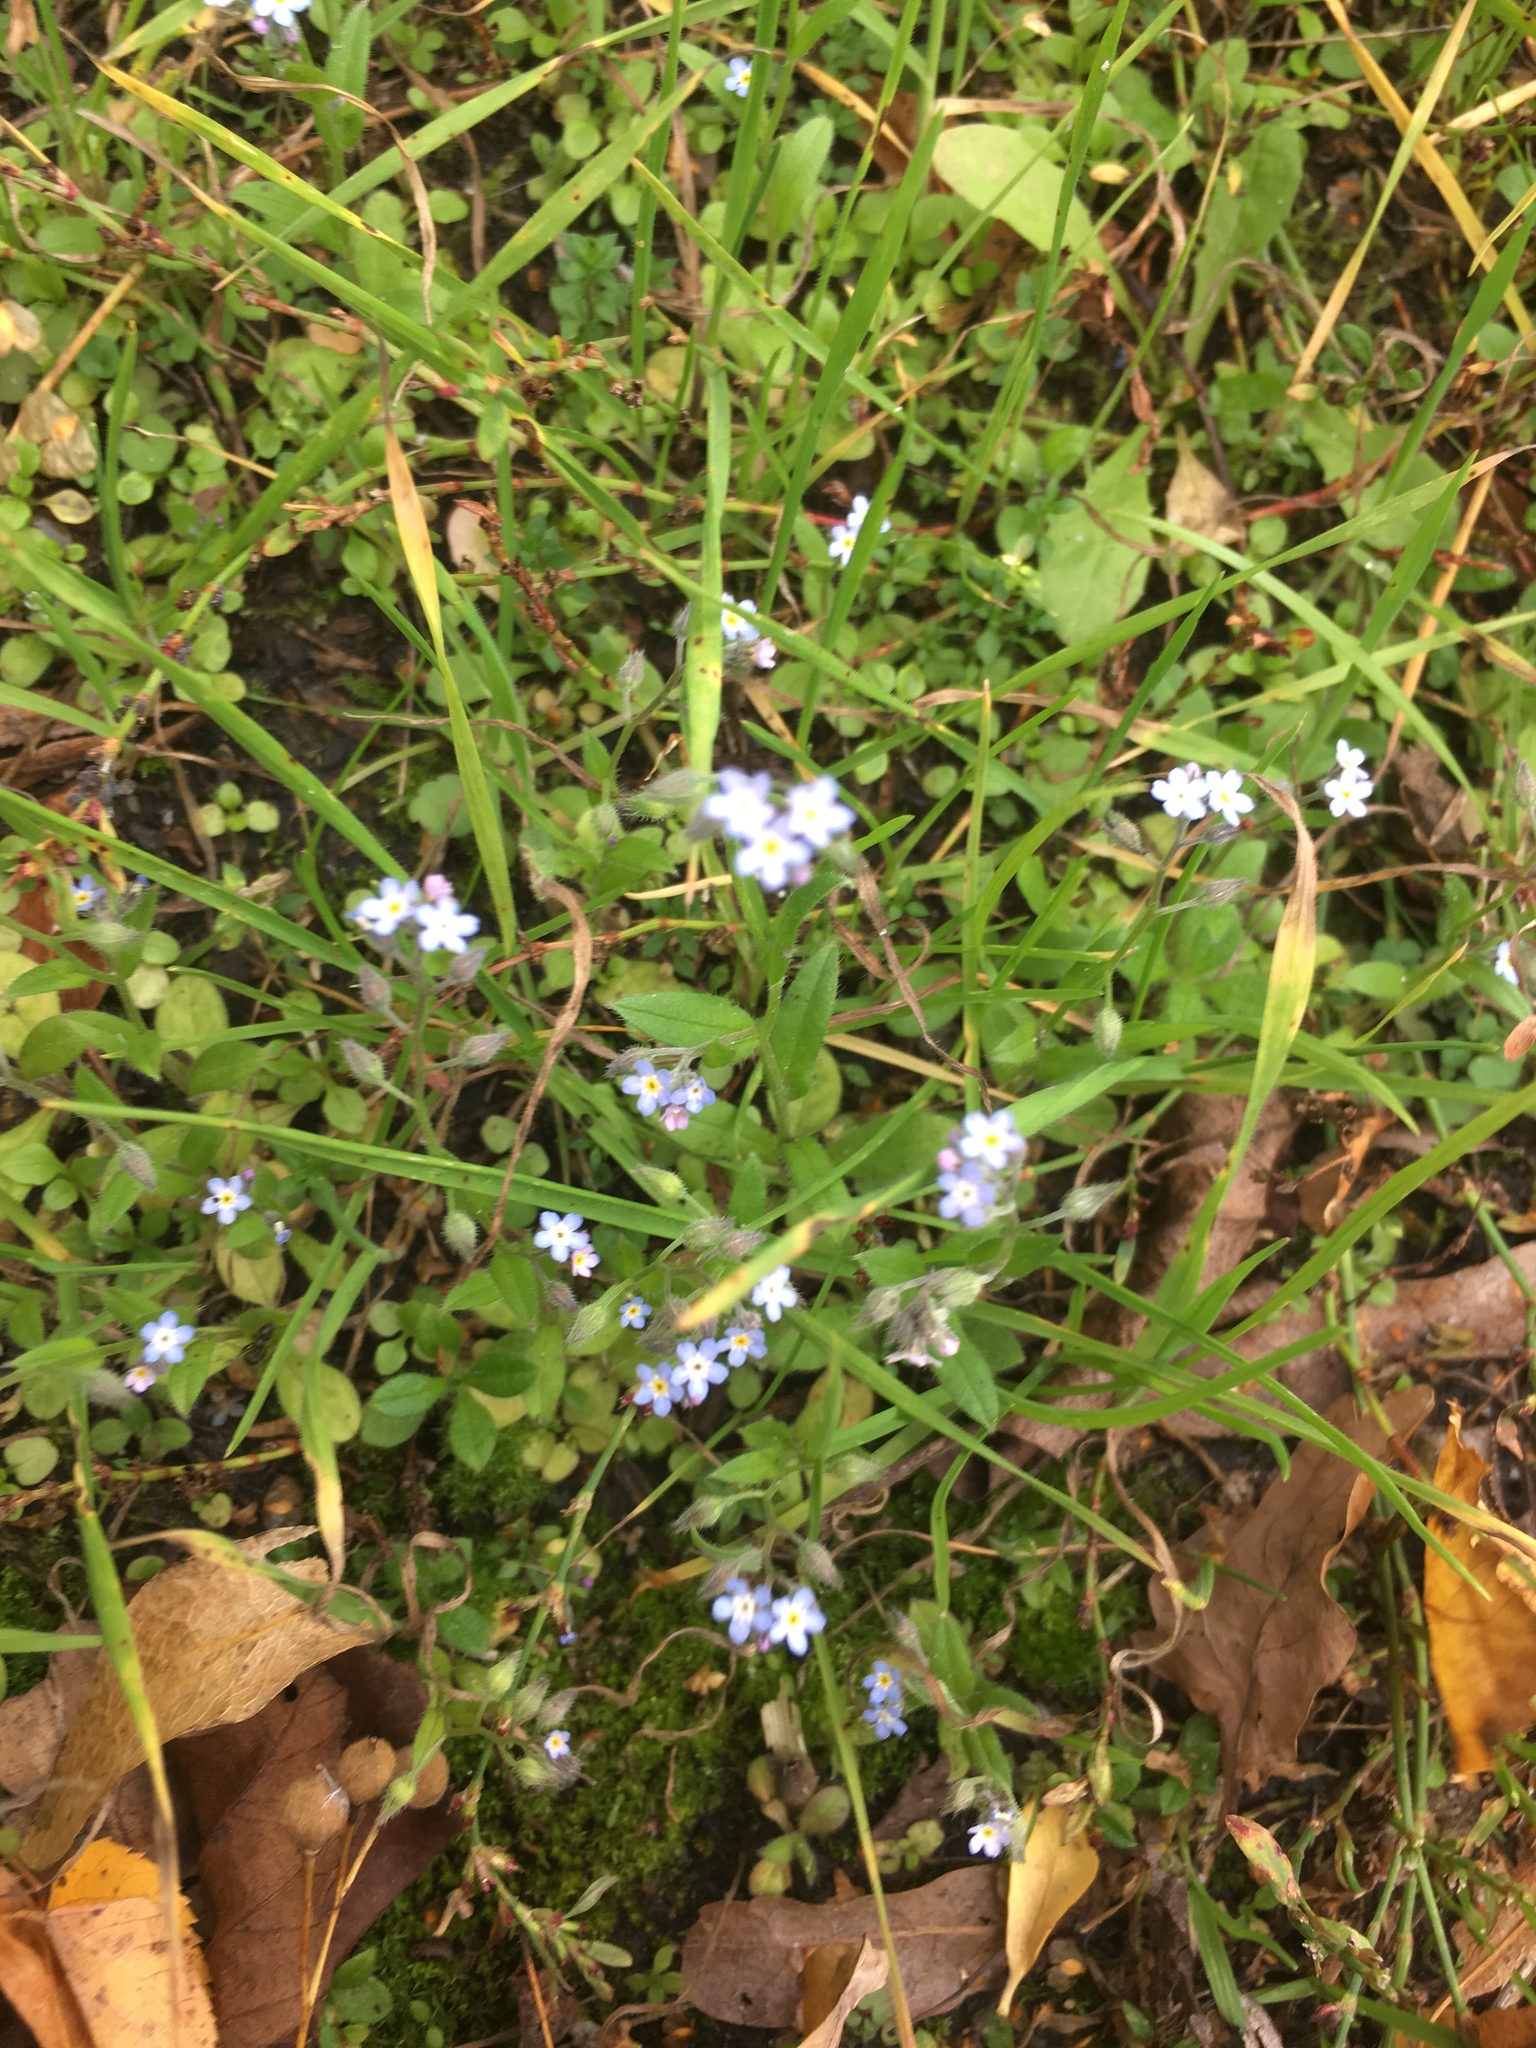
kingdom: Plantae
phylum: Tracheophyta
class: Magnoliopsida
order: Boraginales
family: Boraginaceae
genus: Myosotis
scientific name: Myosotis arvensis
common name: Field forget-me-not
